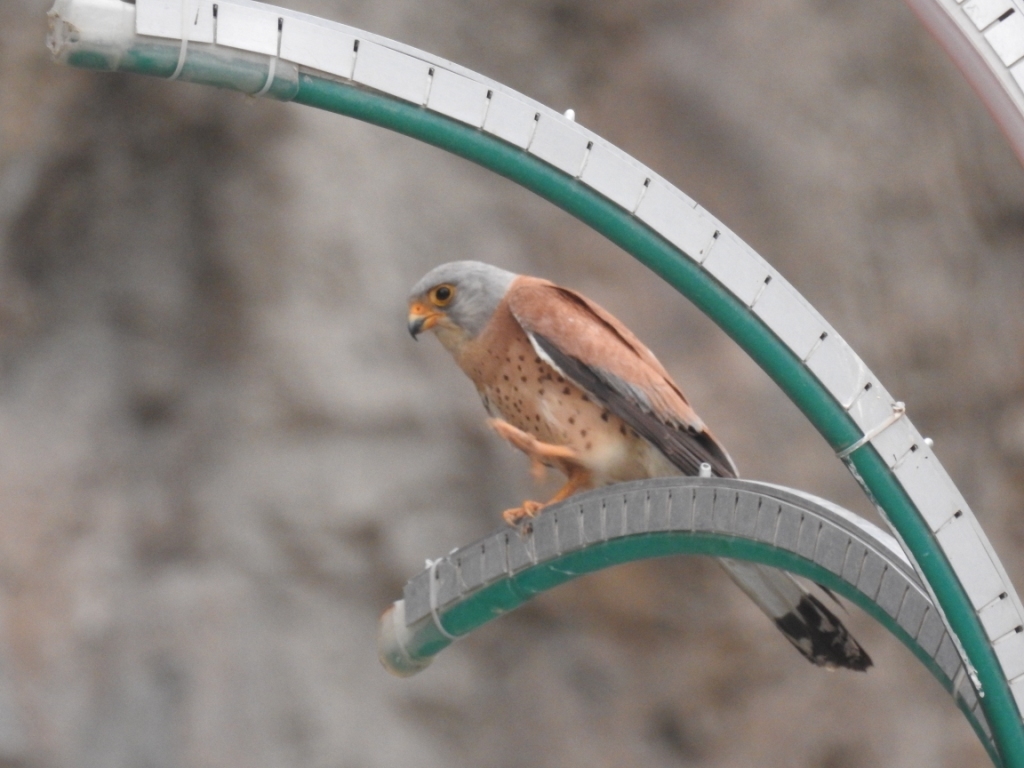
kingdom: Animalia
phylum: Chordata
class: Aves
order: Falconiformes
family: Falconidae
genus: Falco
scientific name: Falco naumanni
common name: Lesser kestrel
